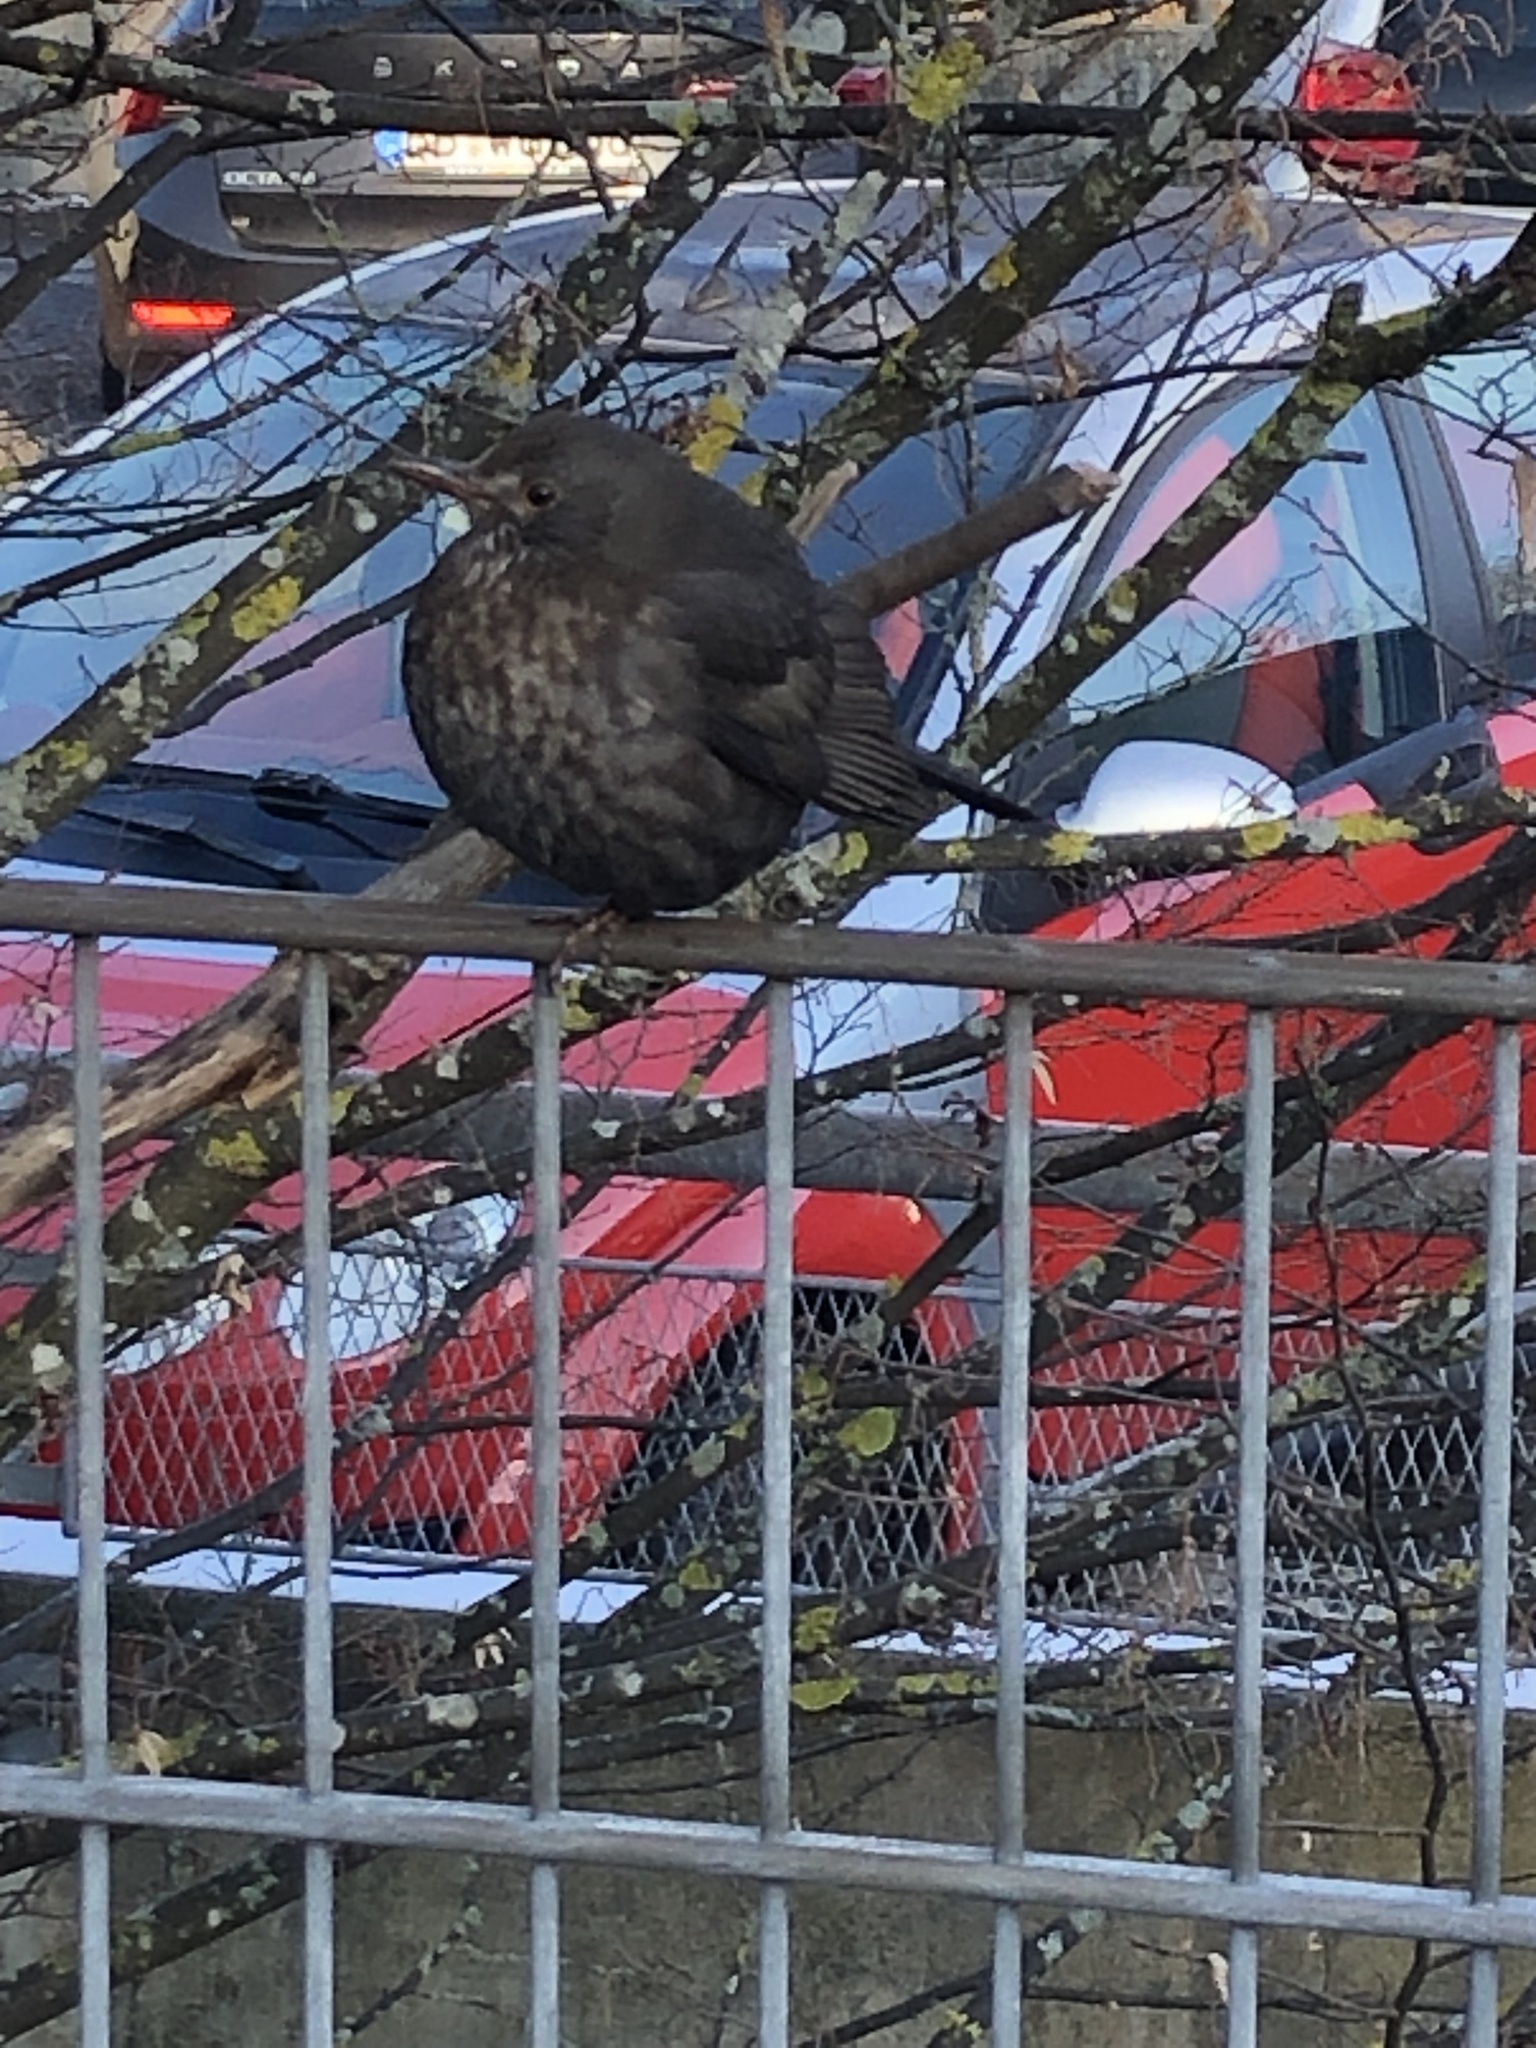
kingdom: Animalia
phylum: Chordata
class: Aves
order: Passeriformes
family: Turdidae
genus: Turdus
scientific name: Turdus merula
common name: Common blackbird
